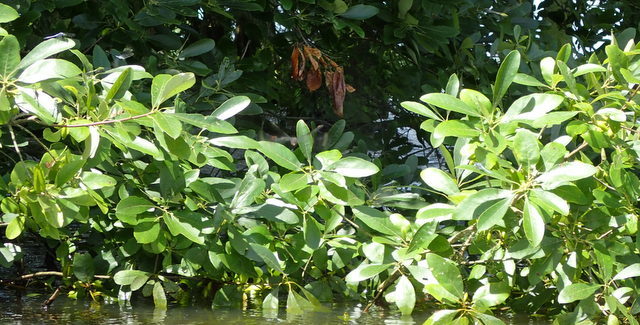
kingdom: Animalia
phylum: Arthropoda
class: Insecta
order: Odonata
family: Libellulidae
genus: Erythemis
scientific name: Erythemis simplicicollis
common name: Eastern pondhawk
